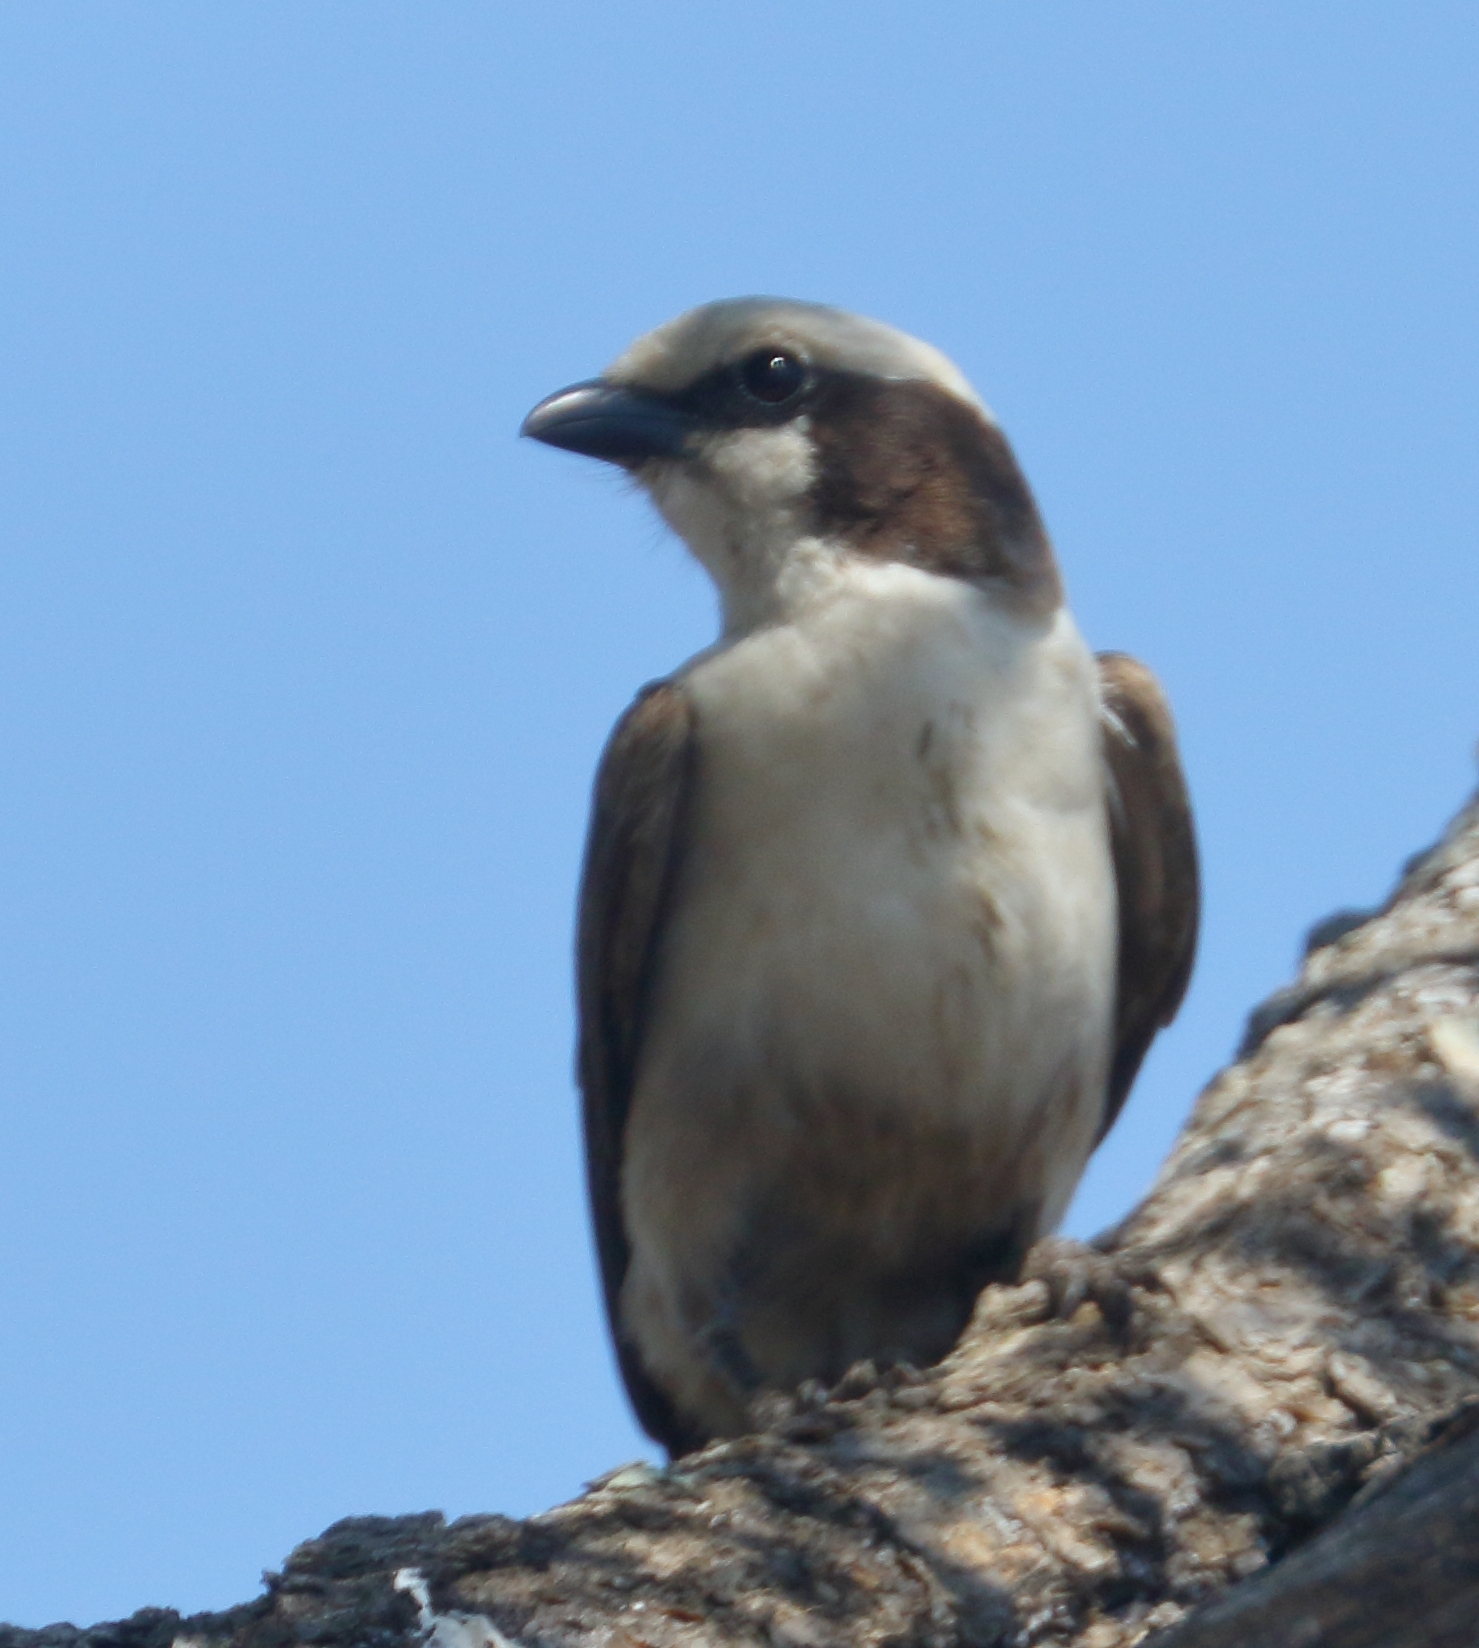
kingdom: Animalia
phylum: Chordata
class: Aves
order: Passeriformes
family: Laniidae
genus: Eurocephalus
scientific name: Eurocephalus anguitimens
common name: Southern white-crowned shrike
